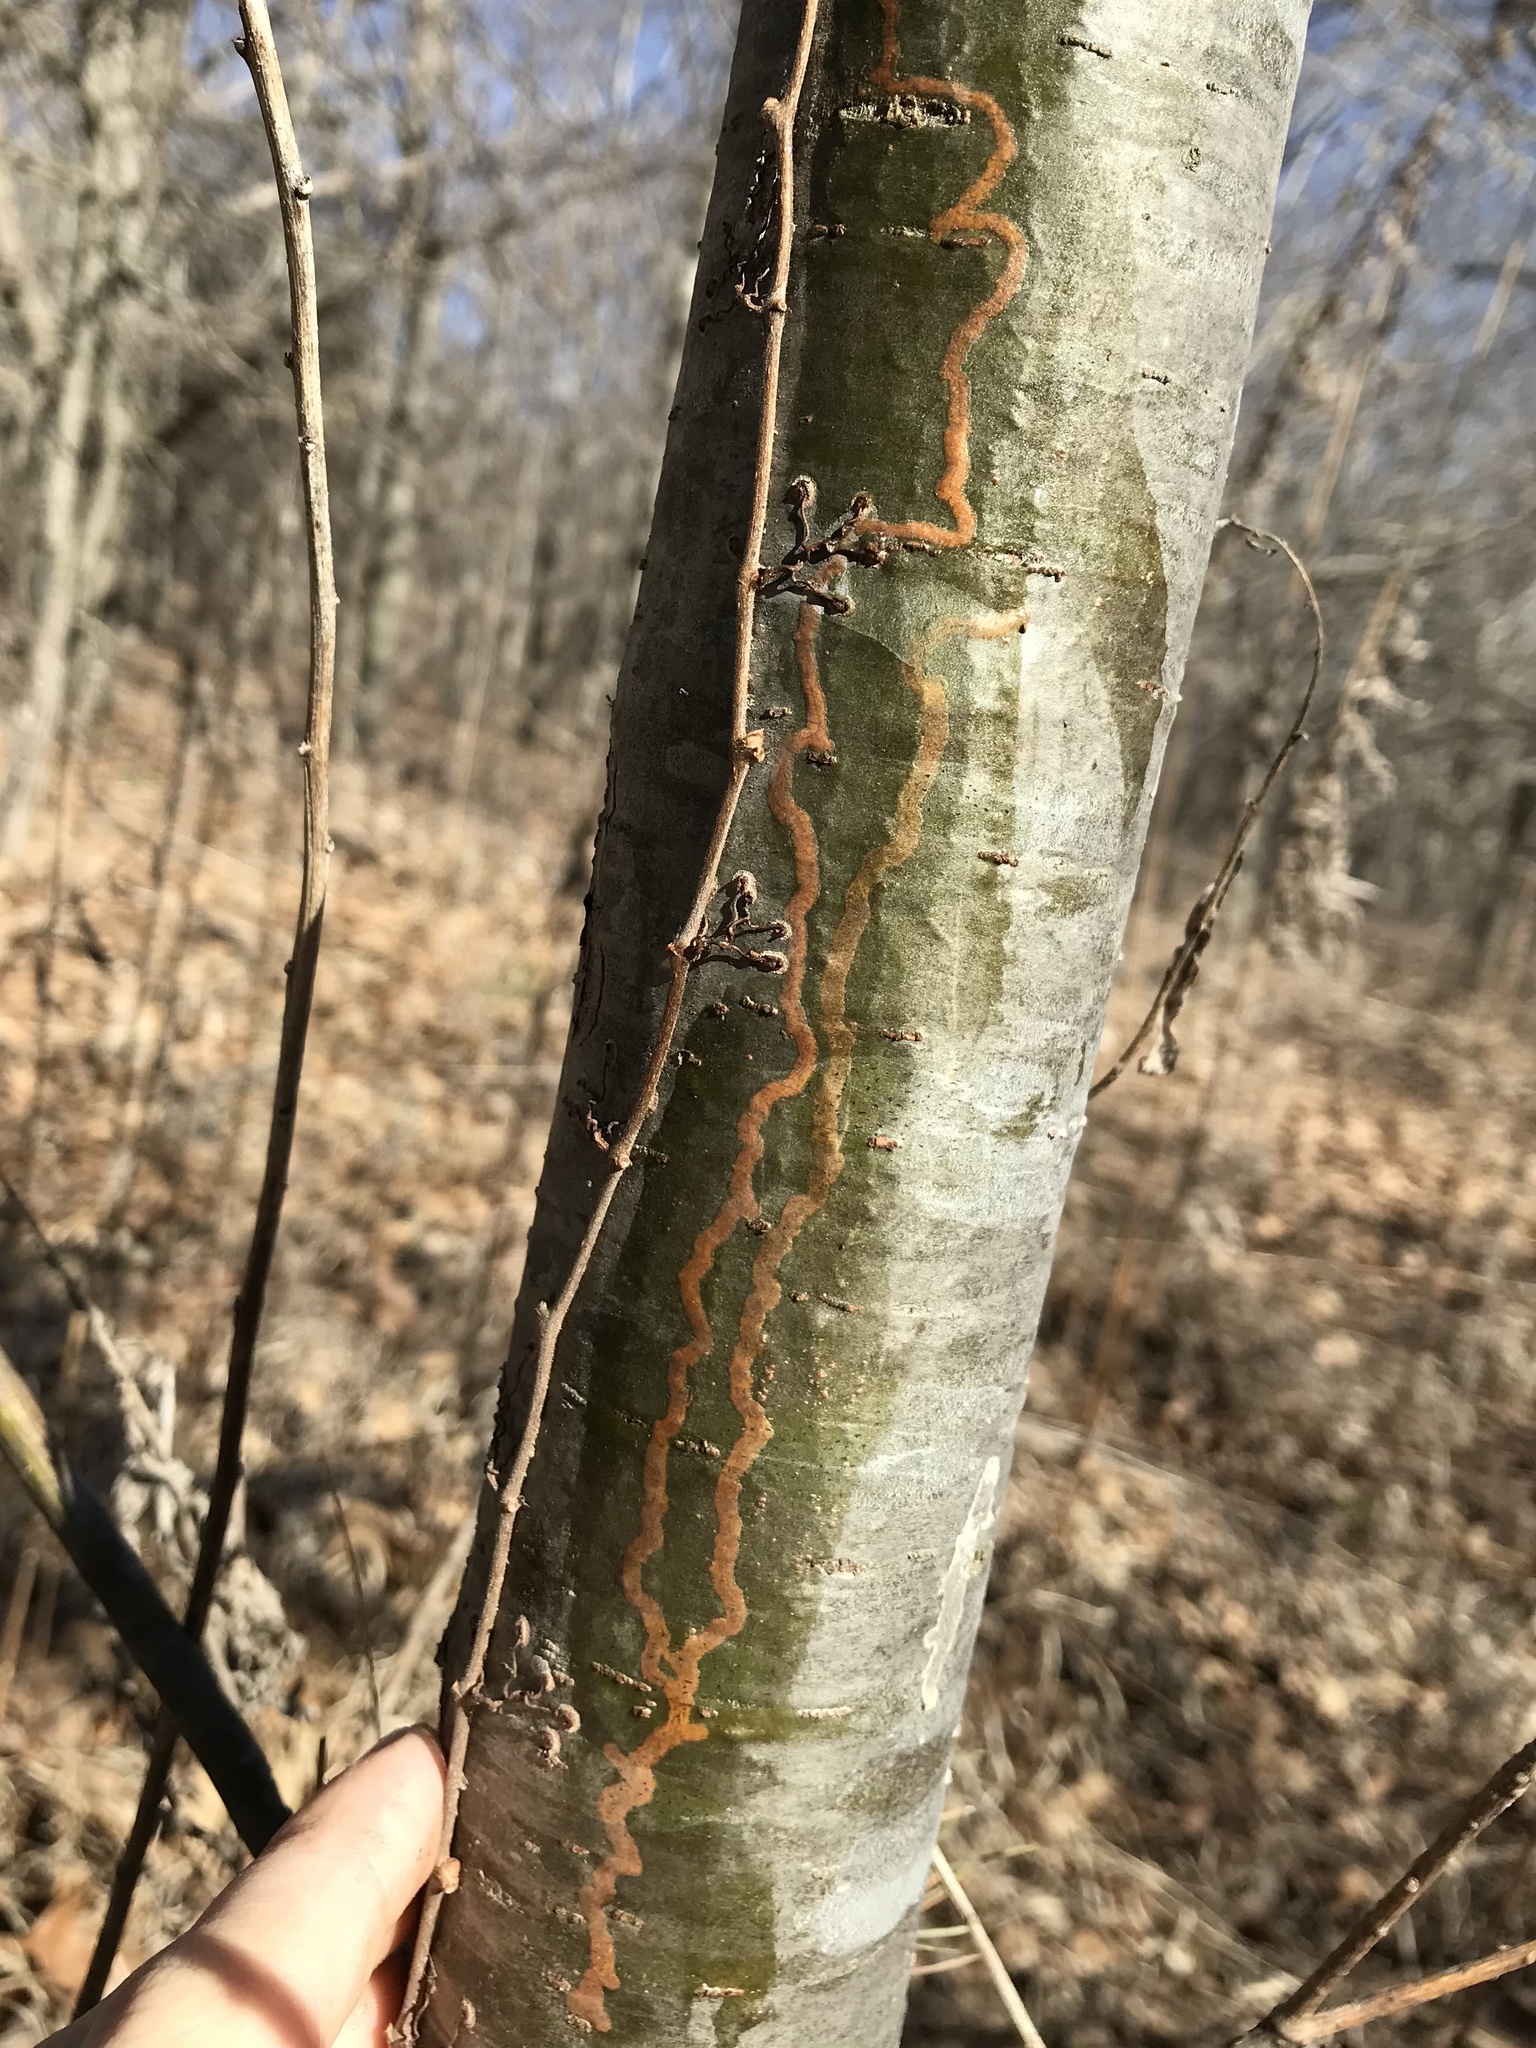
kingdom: Animalia
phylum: Arthropoda
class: Insecta
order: Lepidoptera
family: Gracillariidae
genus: Marmara
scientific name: Marmara fasciella
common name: White pine barkminer moth
